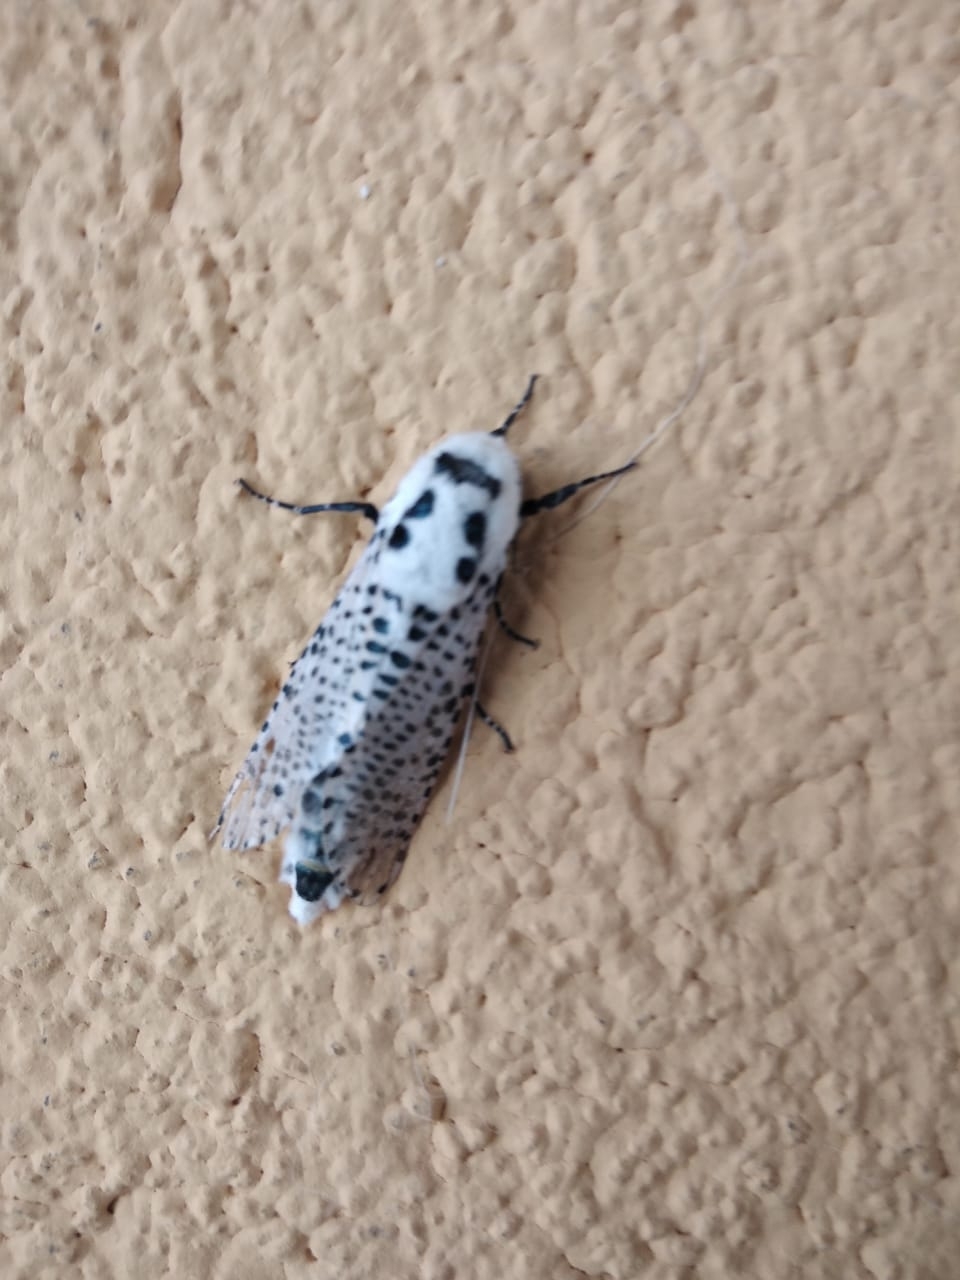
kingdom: Animalia
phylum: Arthropoda
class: Insecta
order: Lepidoptera
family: Cossidae
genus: Zeuzera
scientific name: Zeuzera pyrina
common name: Leopard moth
